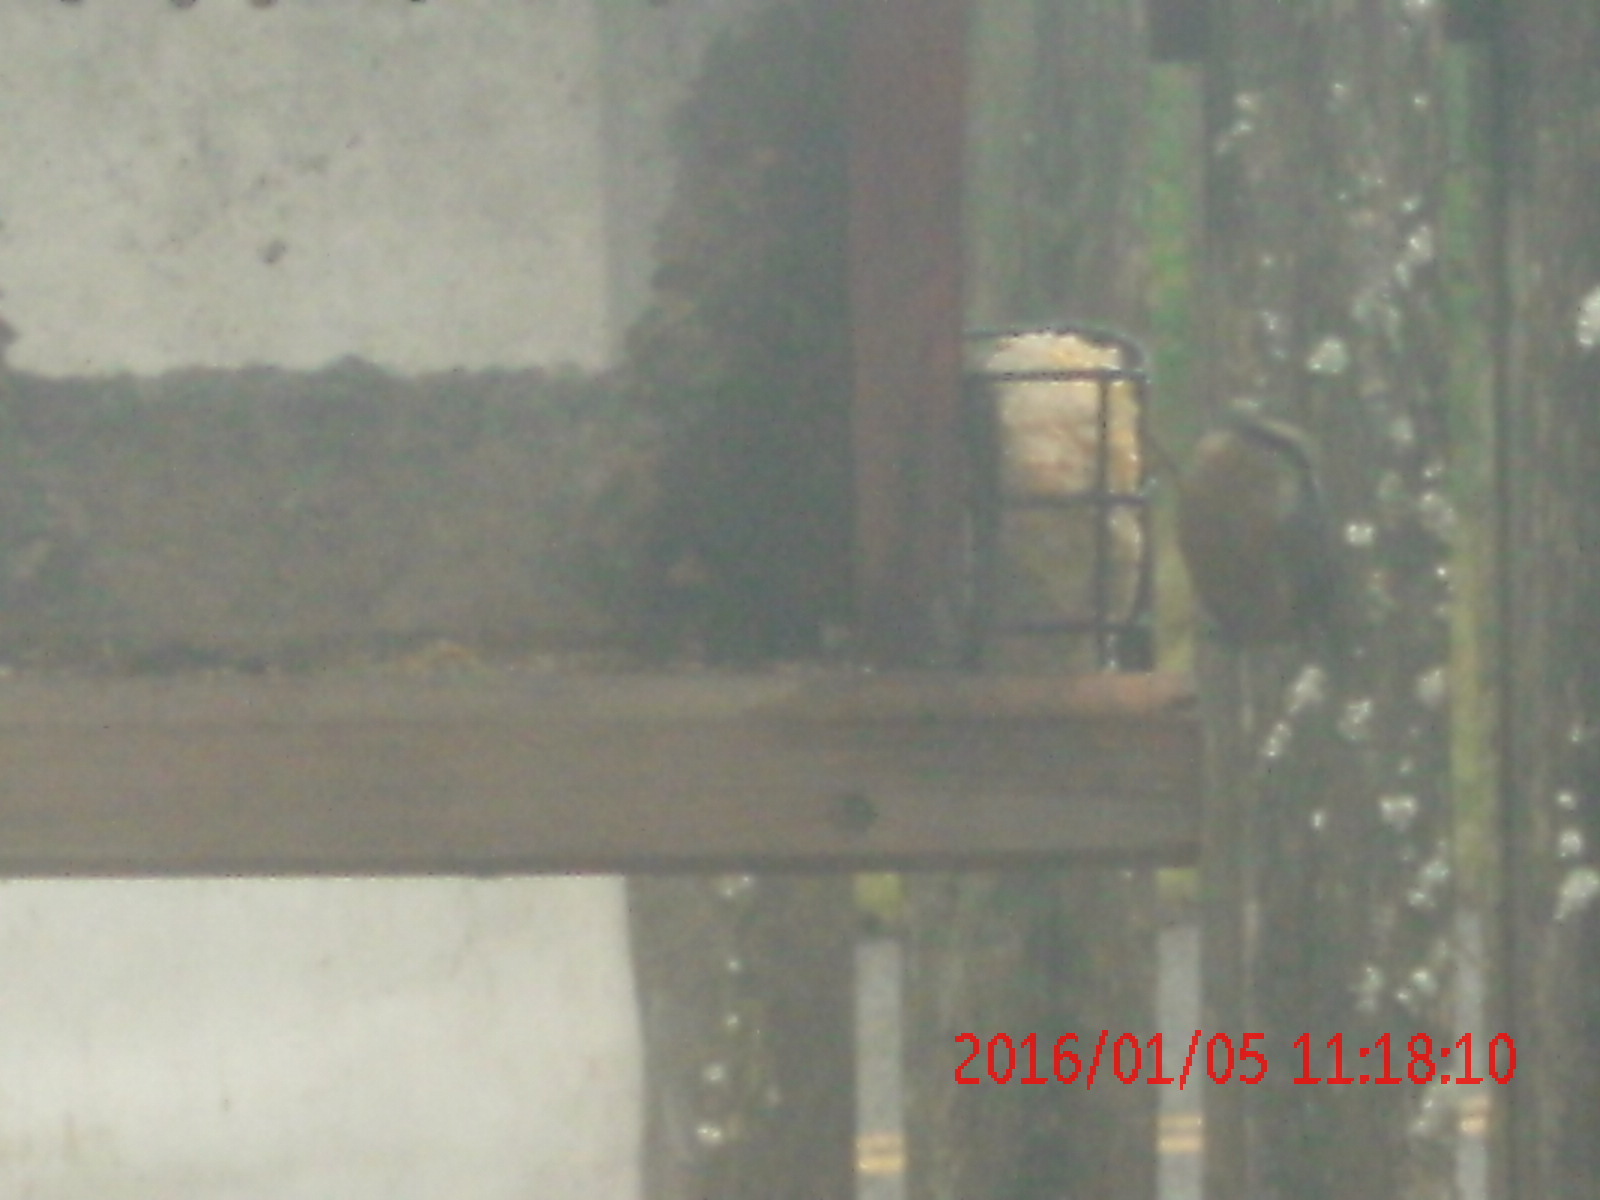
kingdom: Animalia
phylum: Chordata
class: Aves
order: Passeriformes
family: Sittidae
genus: Sitta
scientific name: Sitta canadensis
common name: Red-breasted nuthatch
